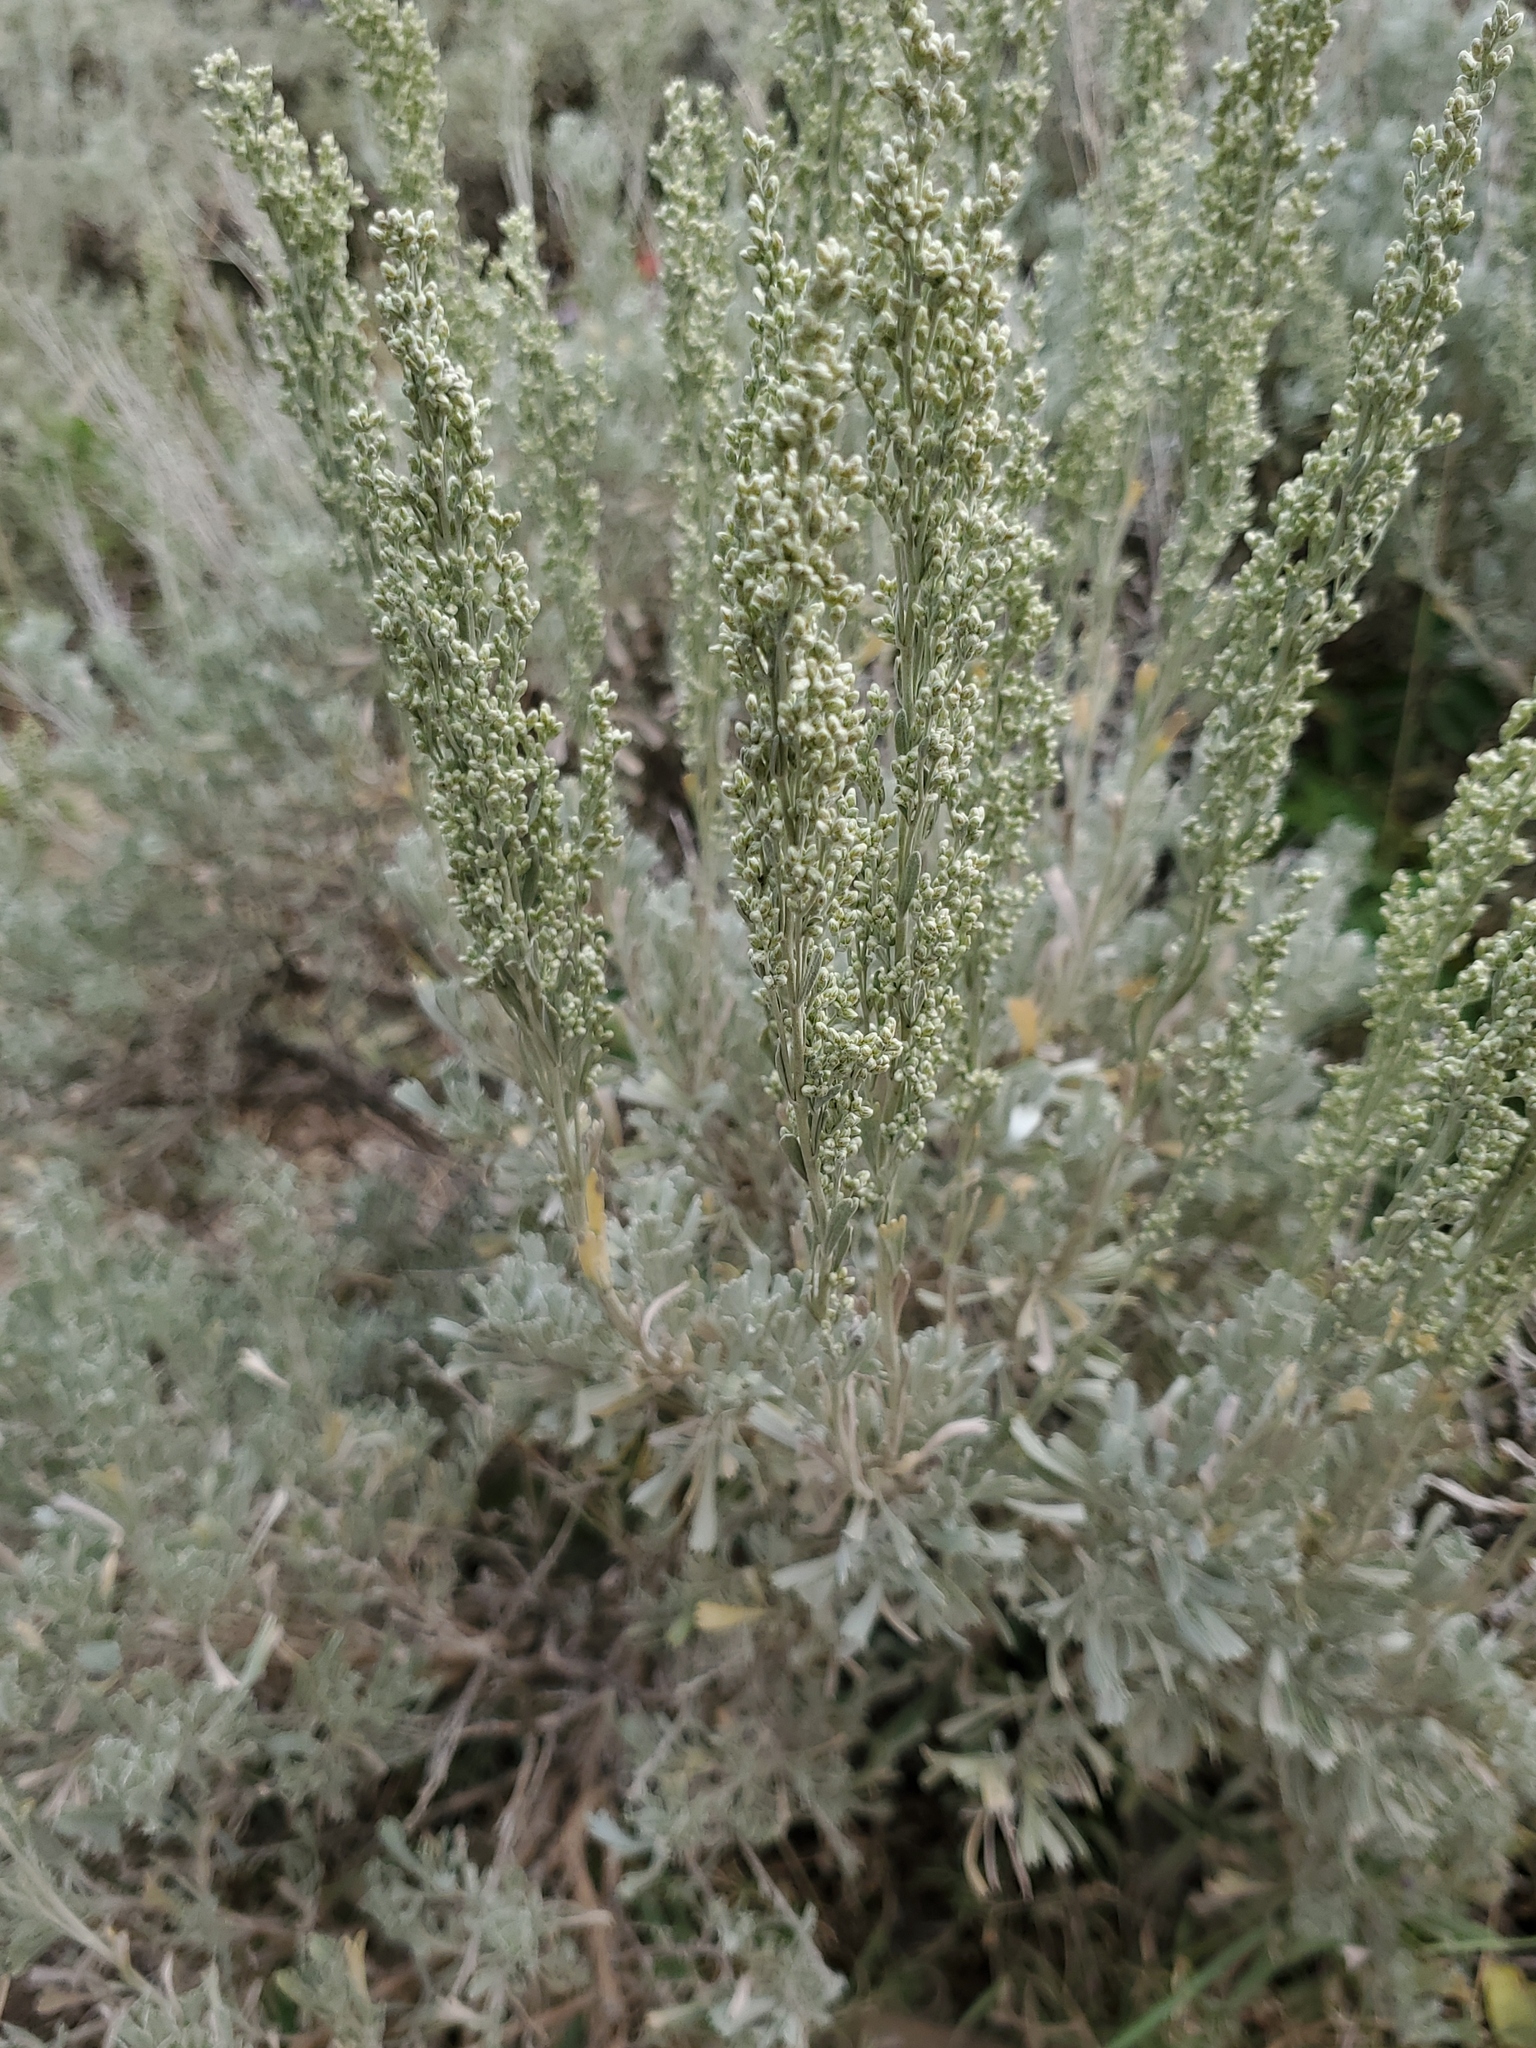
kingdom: Plantae
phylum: Tracheophyta
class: Magnoliopsida
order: Asterales
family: Asteraceae
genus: Artemisia
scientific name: Artemisia tridentata
